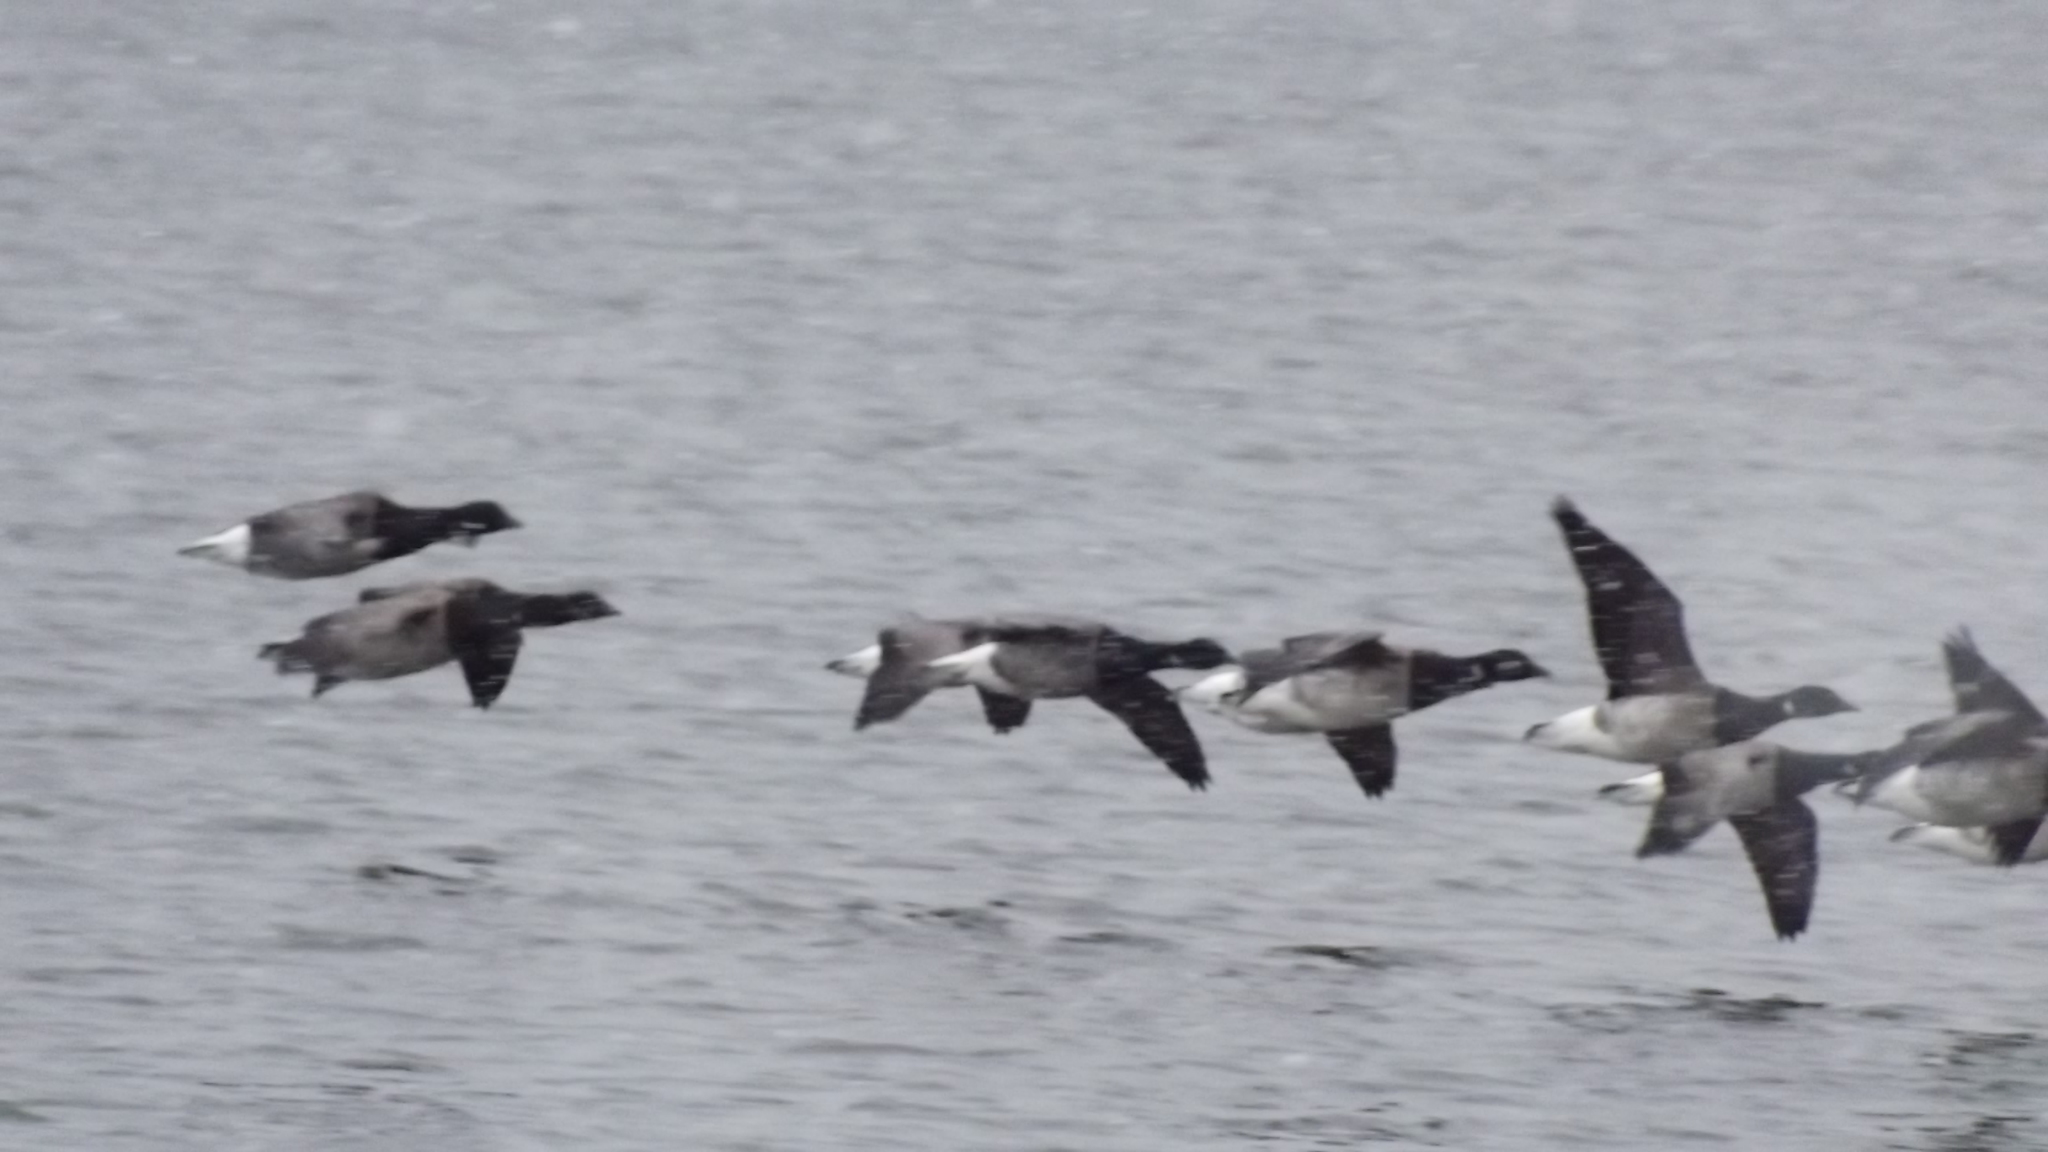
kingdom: Animalia
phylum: Chordata
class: Aves
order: Anseriformes
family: Anatidae
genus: Branta
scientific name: Branta bernicla
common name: Brant goose
